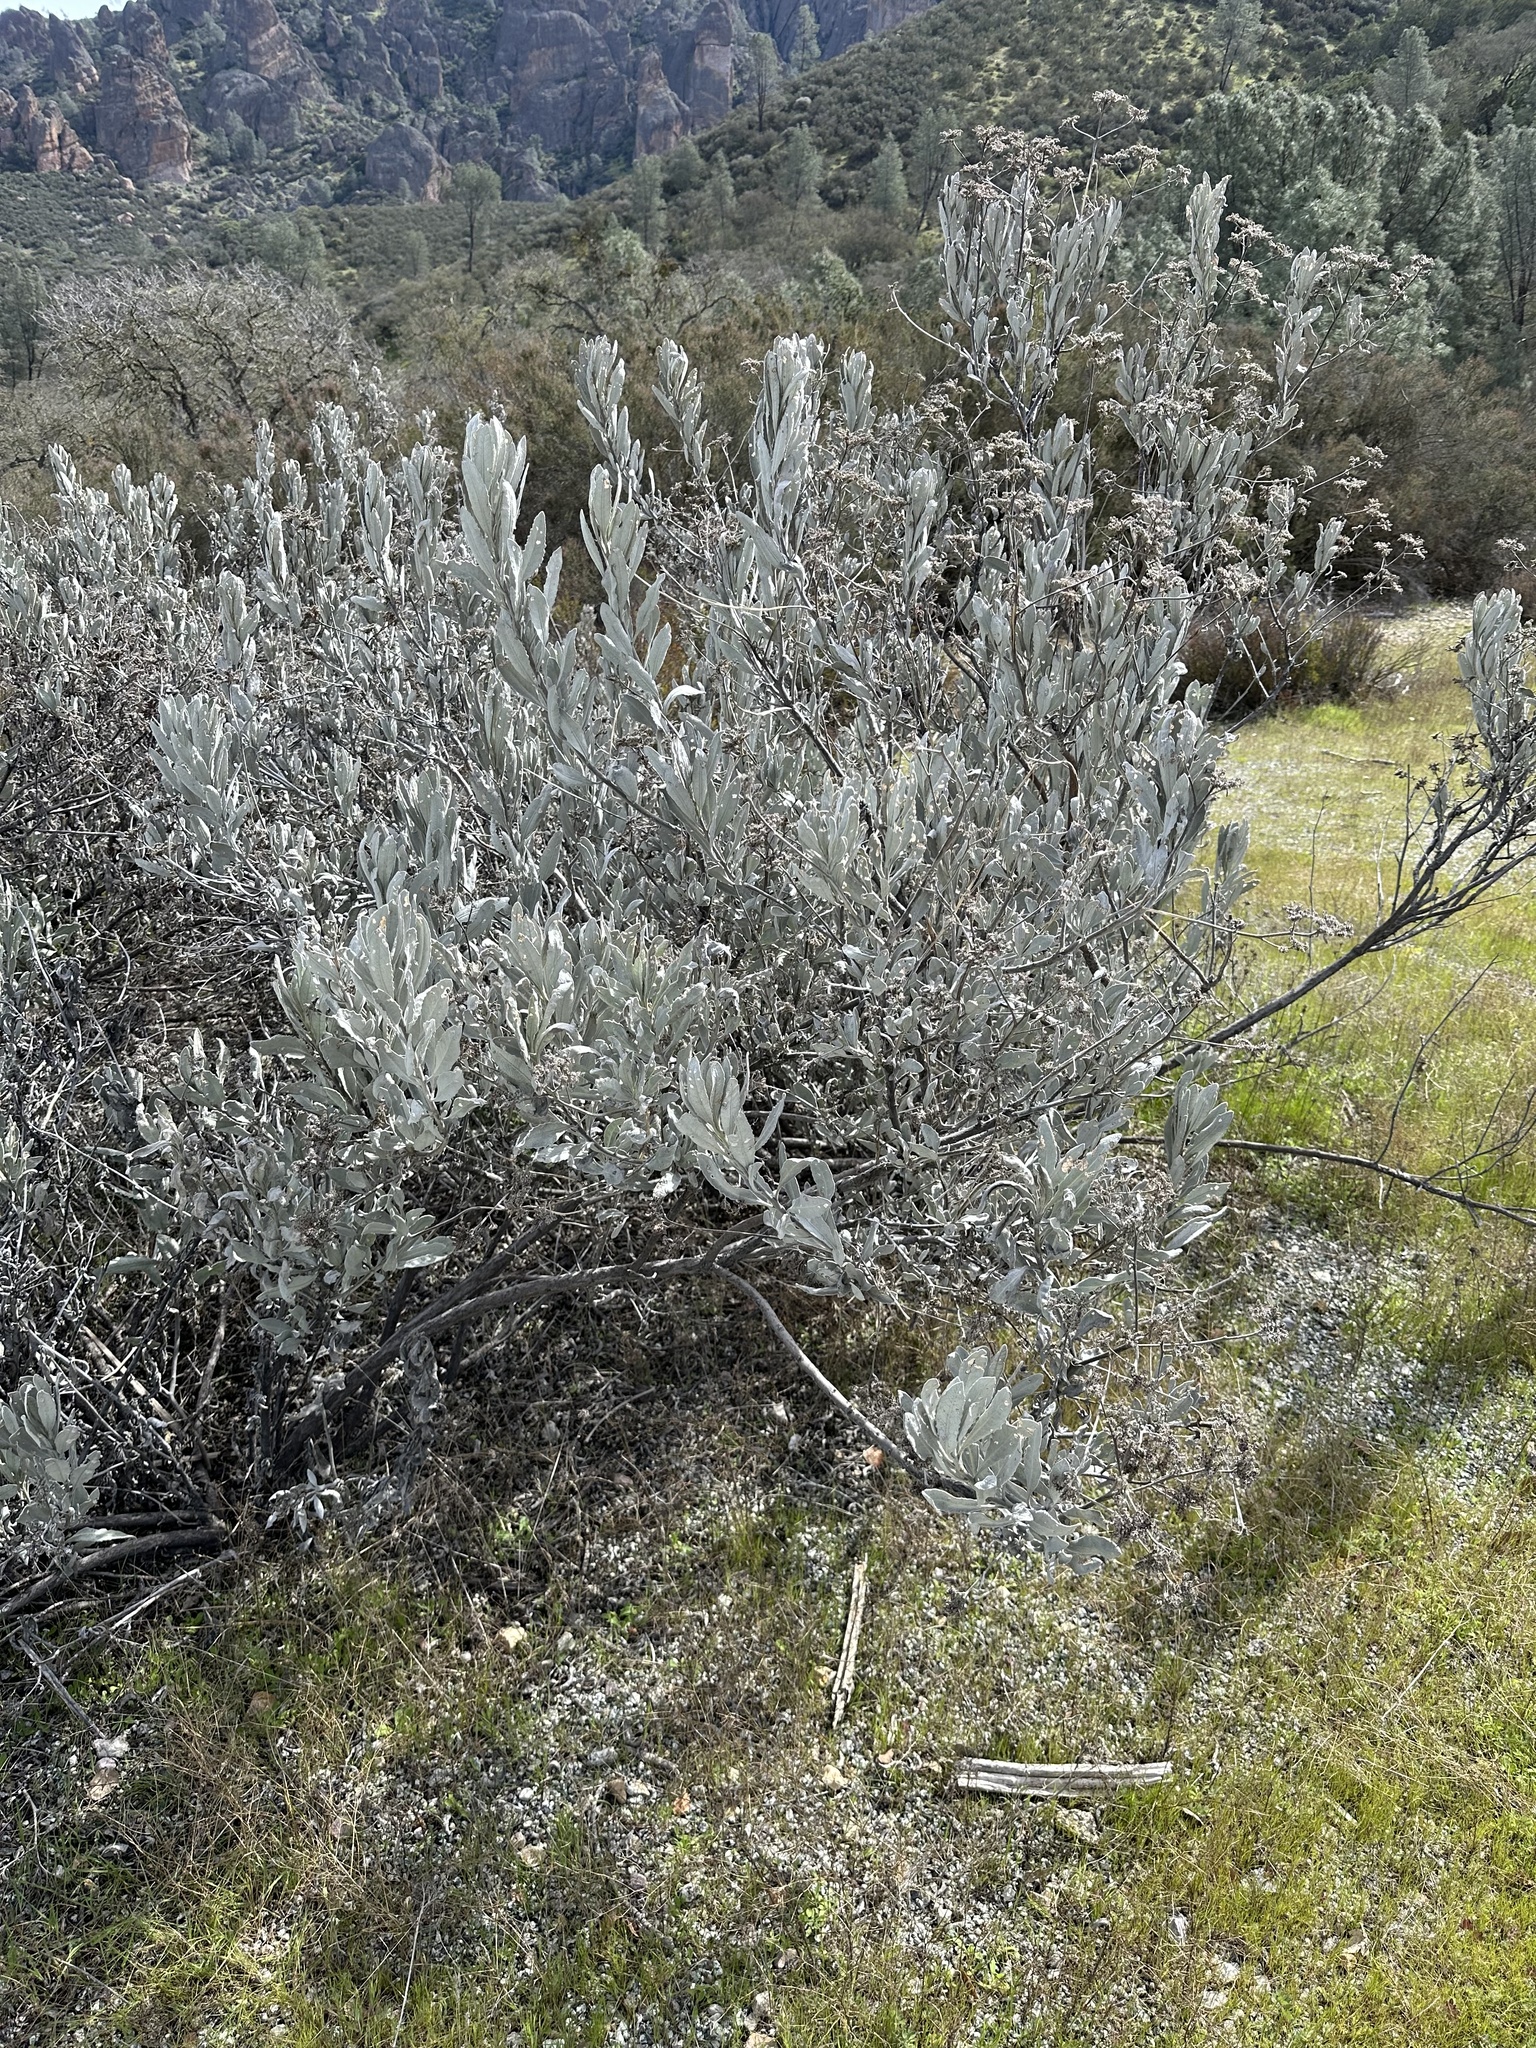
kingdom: Plantae
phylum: Tracheophyta
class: Magnoliopsida
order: Boraginales
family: Namaceae
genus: Eriodictyon
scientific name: Eriodictyon tomentosum
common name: Woolly yerba-santa
